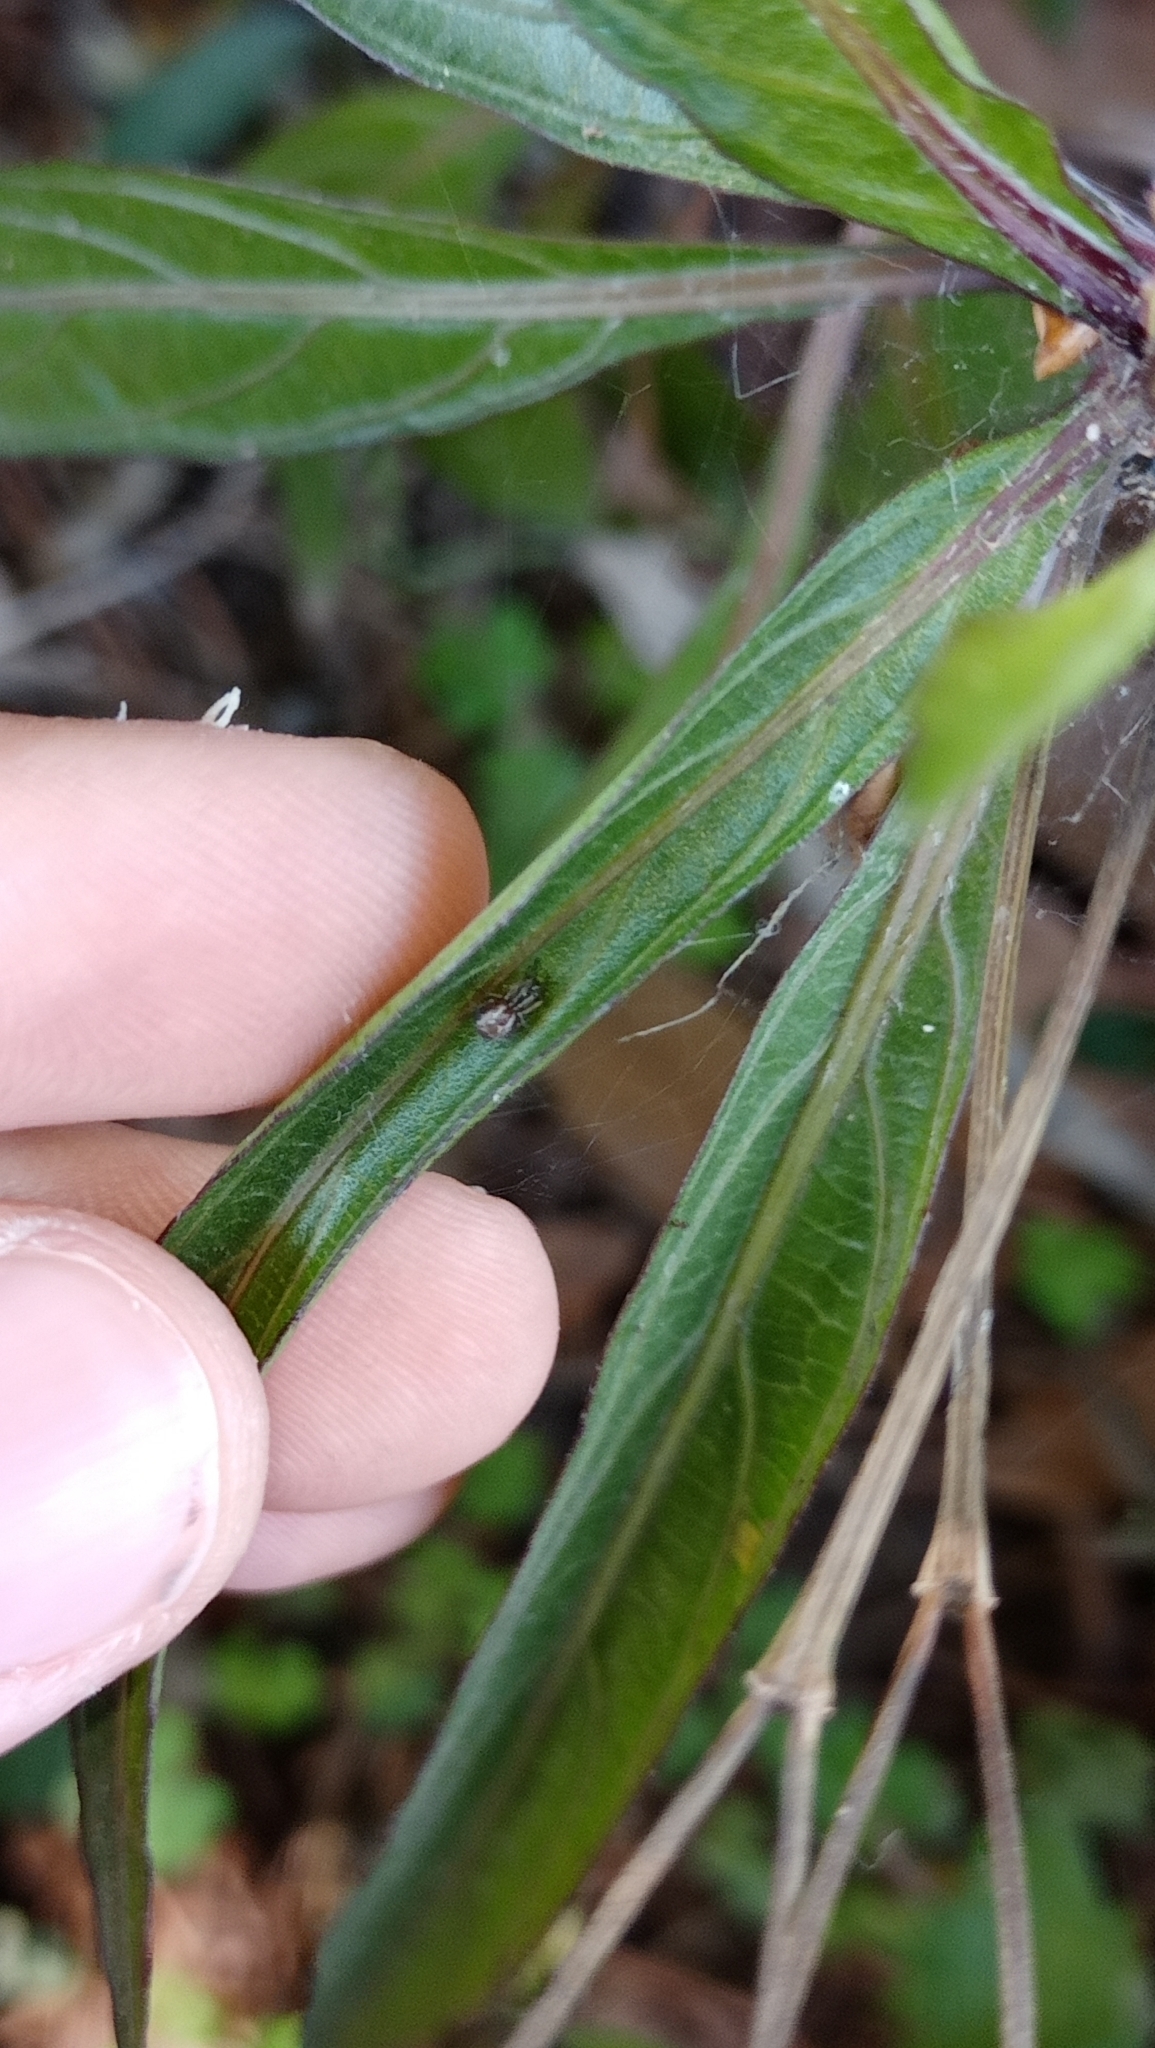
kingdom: Animalia
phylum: Arthropoda
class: Arachnida
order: Araneae
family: Theridiidae
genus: Kochiura
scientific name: Kochiura aulica
